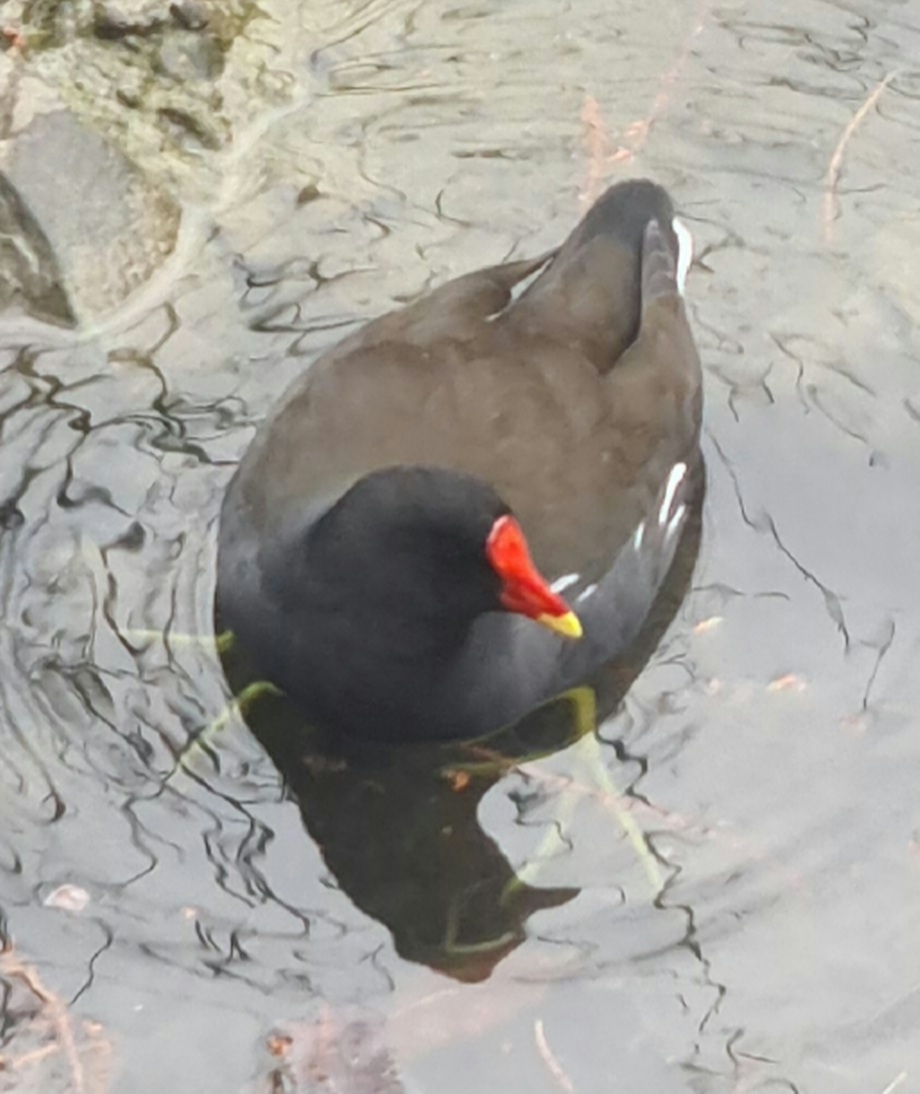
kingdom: Animalia
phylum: Chordata
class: Aves
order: Gruiformes
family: Rallidae
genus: Gallinula
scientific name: Gallinula chloropus
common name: Common moorhen
